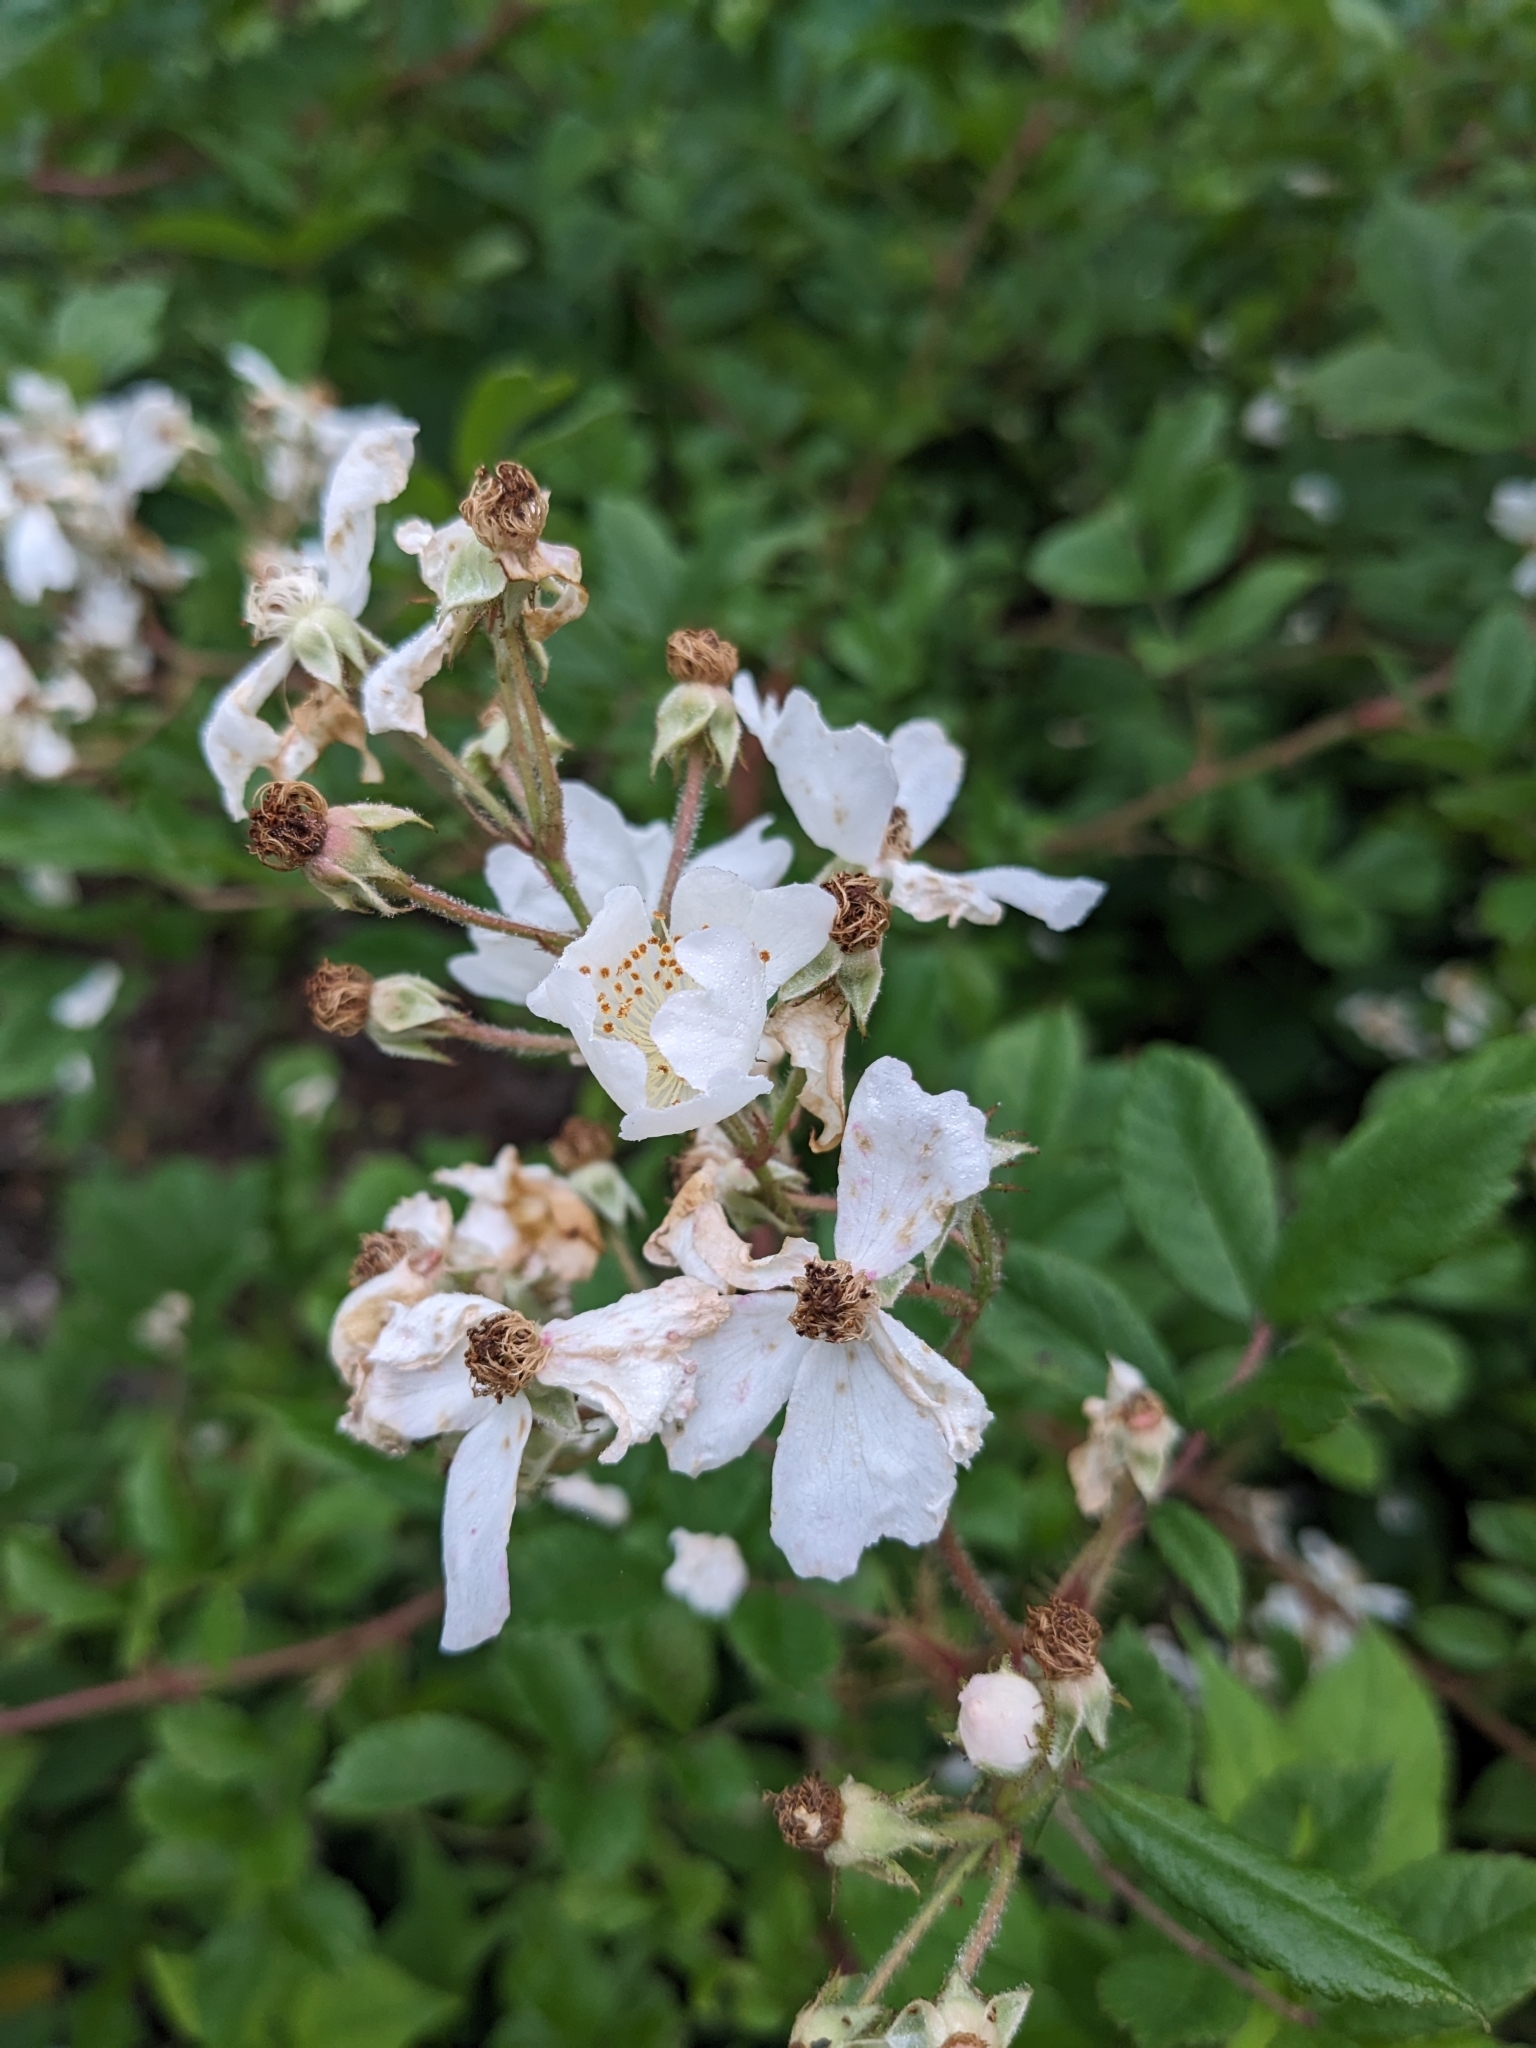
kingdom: Plantae
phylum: Tracheophyta
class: Magnoliopsida
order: Rosales
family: Rosaceae
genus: Rosa
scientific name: Rosa multiflora
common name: Multiflora rose
